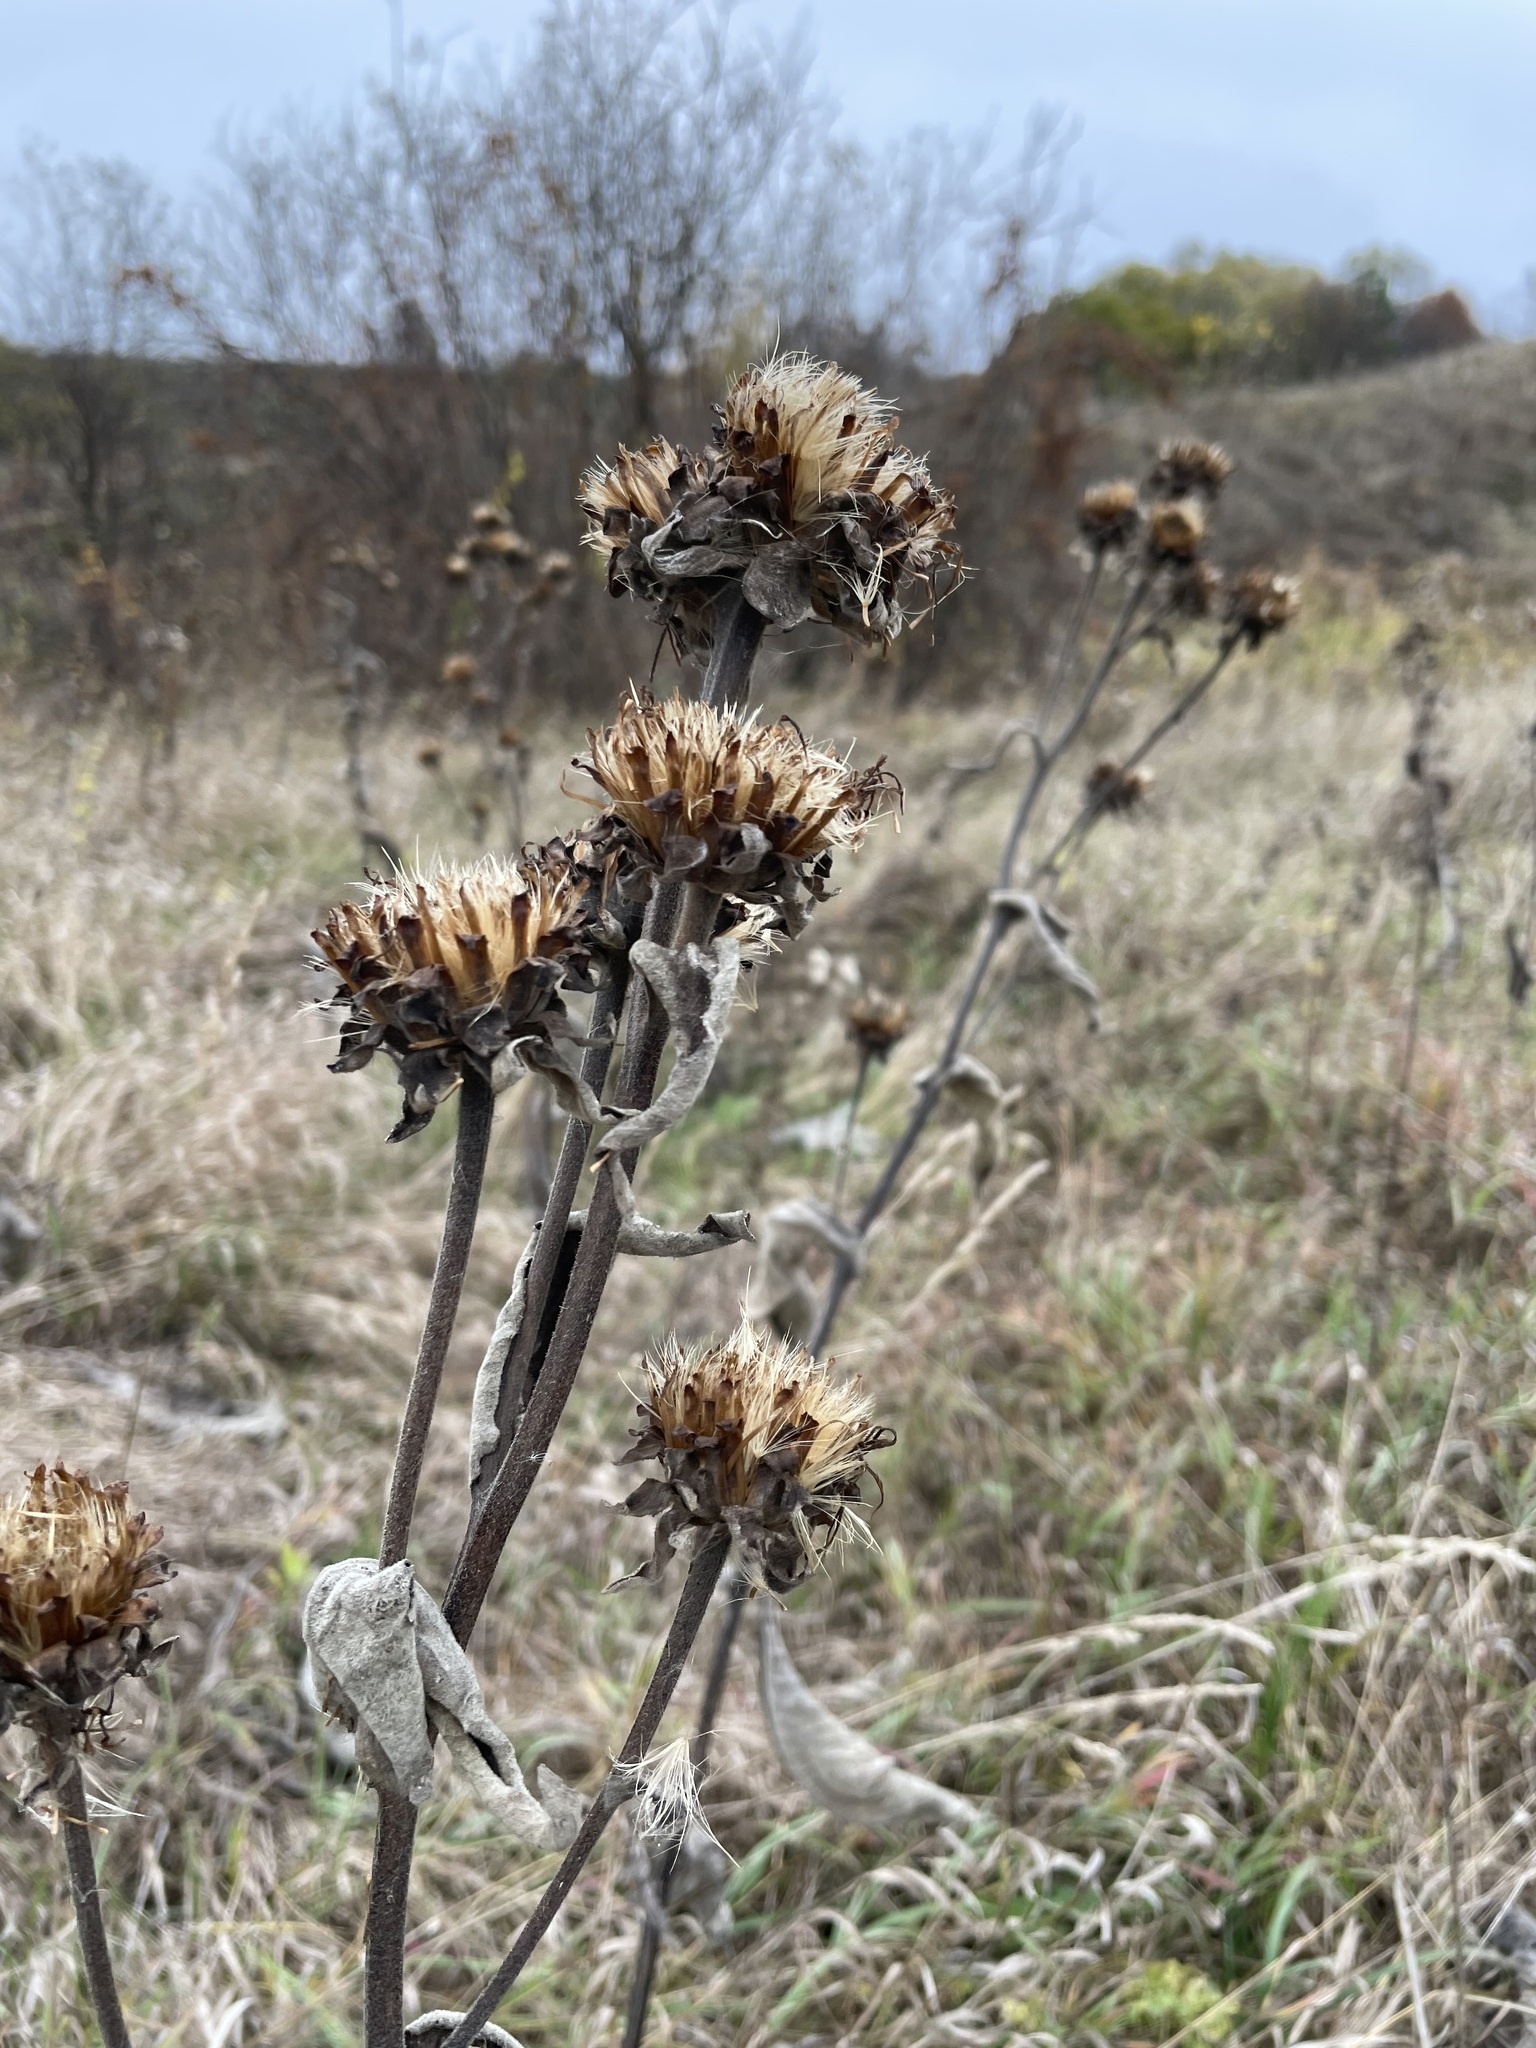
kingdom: Plantae
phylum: Tracheophyta
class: Magnoliopsida
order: Asterales
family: Asteraceae
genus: Inula
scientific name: Inula helenium
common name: Elecampane
